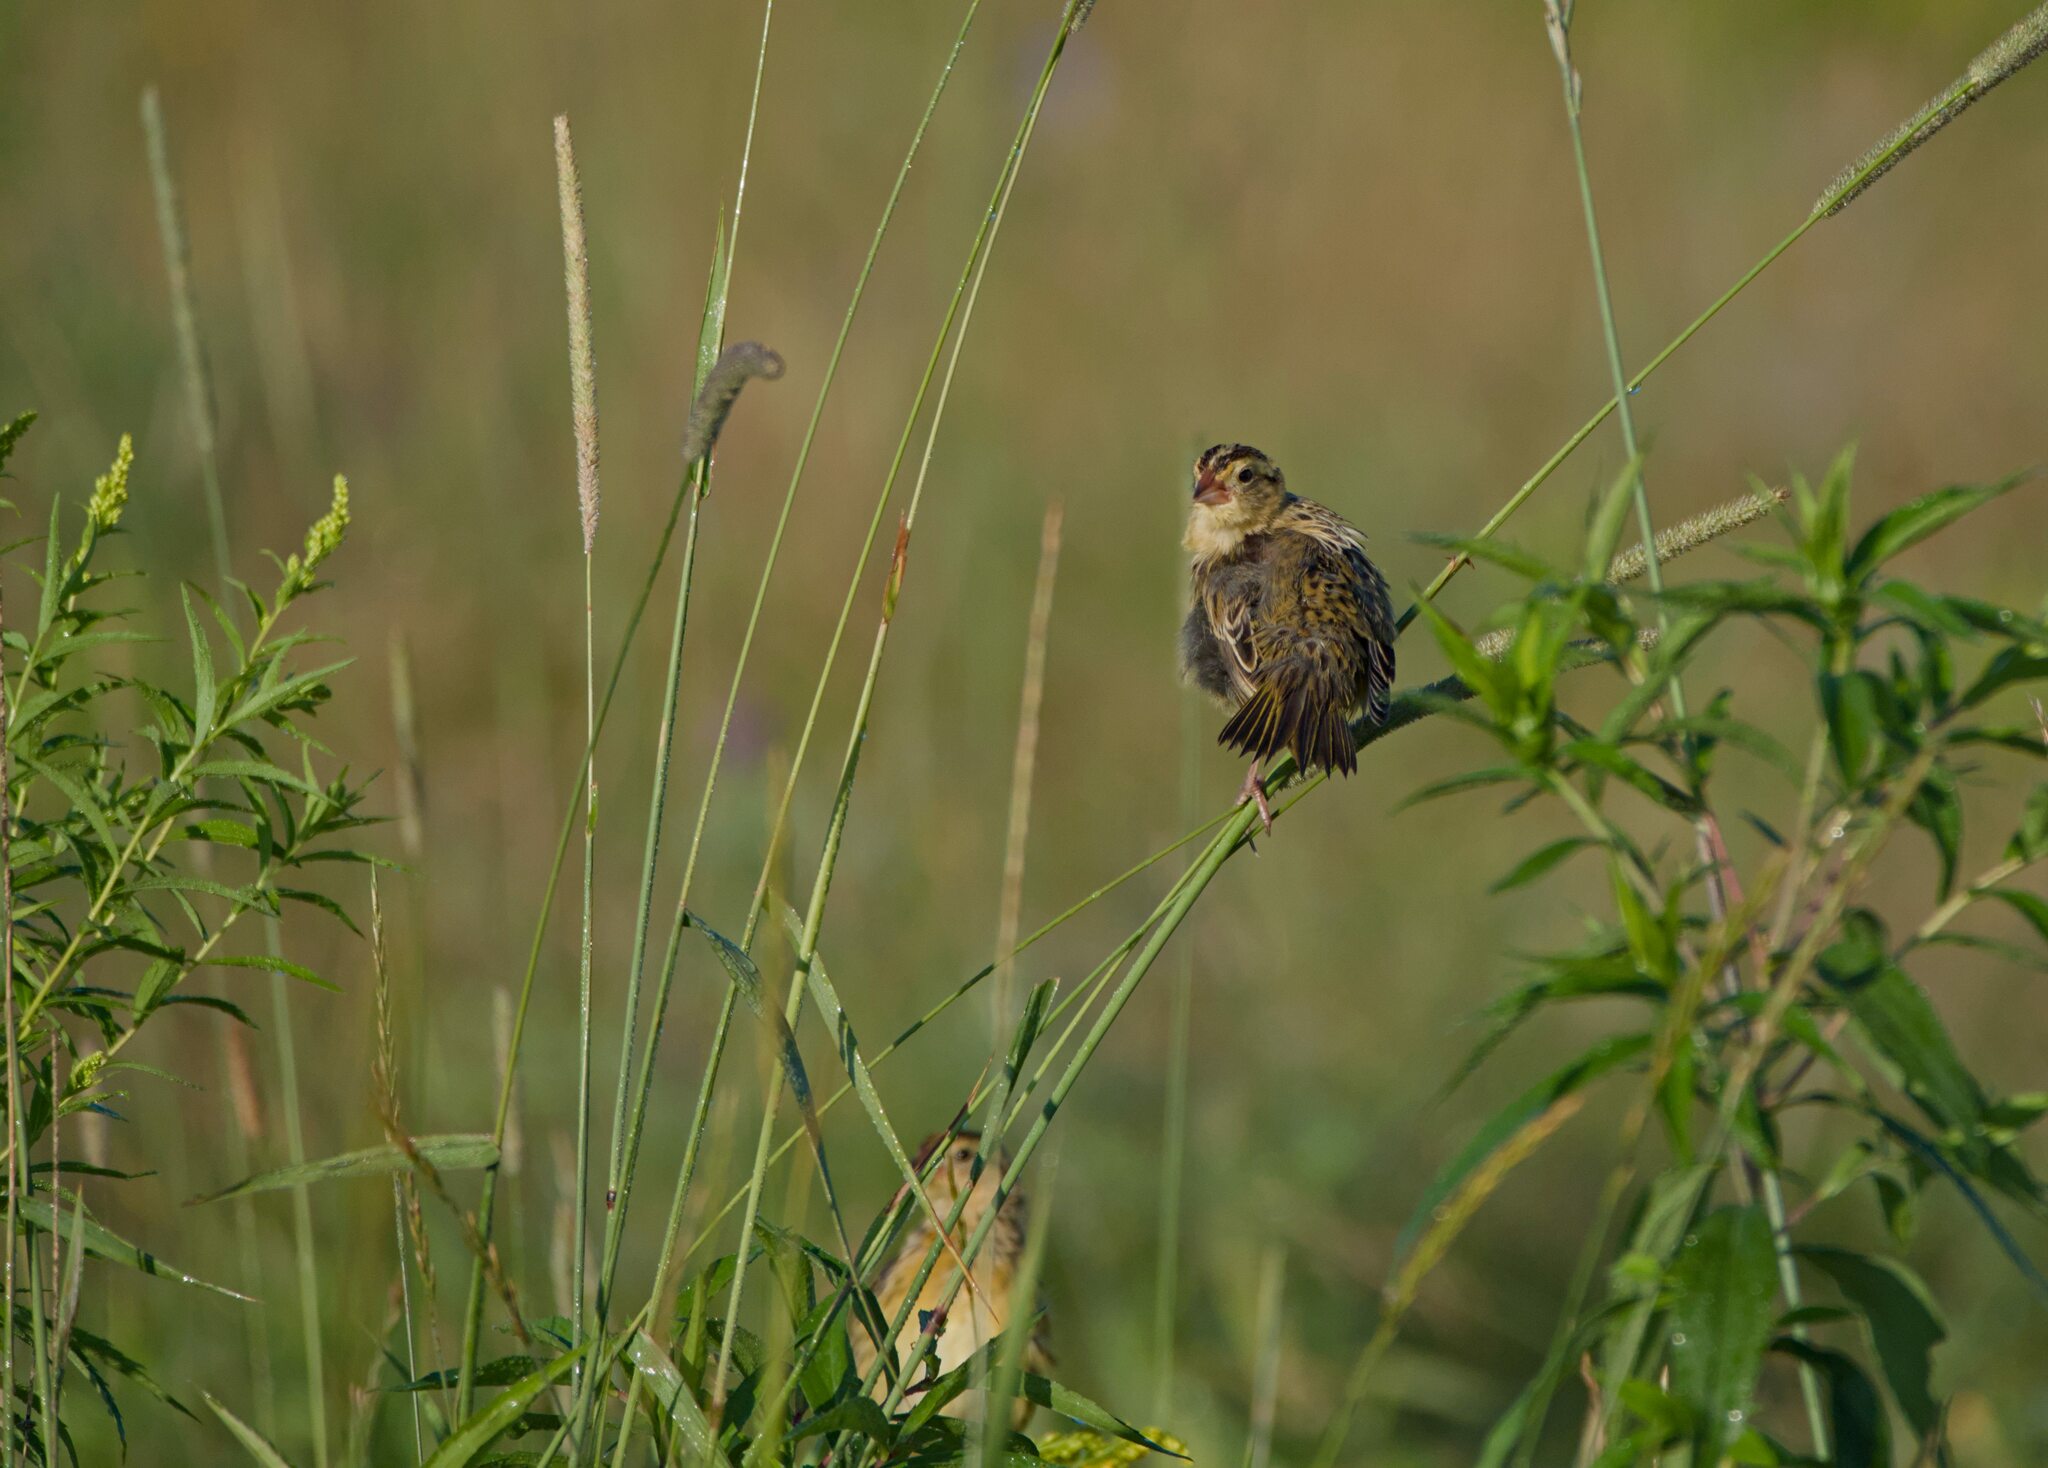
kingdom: Animalia
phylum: Chordata
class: Aves
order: Passeriformes
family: Icteridae
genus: Dolichonyx
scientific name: Dolichonyx oryzivorus
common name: Bobolink
